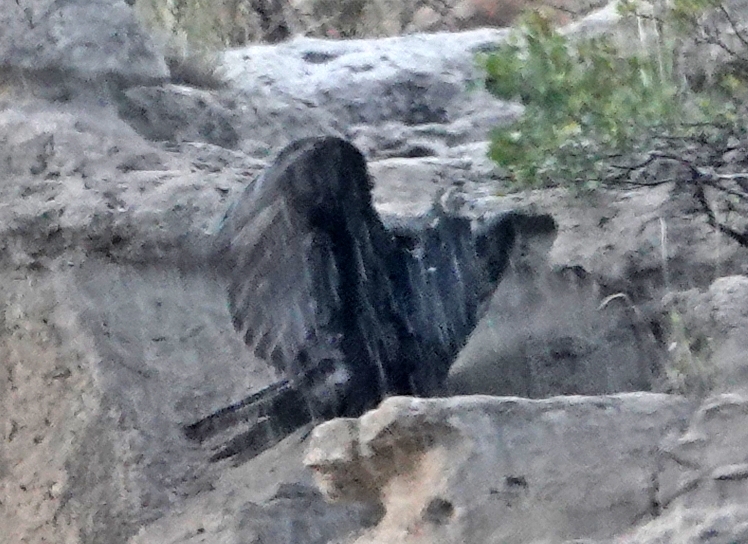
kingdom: Animalia
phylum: Chordata
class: Aves
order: Accipitriformes
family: Cathartidae
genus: Cathartes
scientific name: Cathartes aura
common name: Turkey vulture
